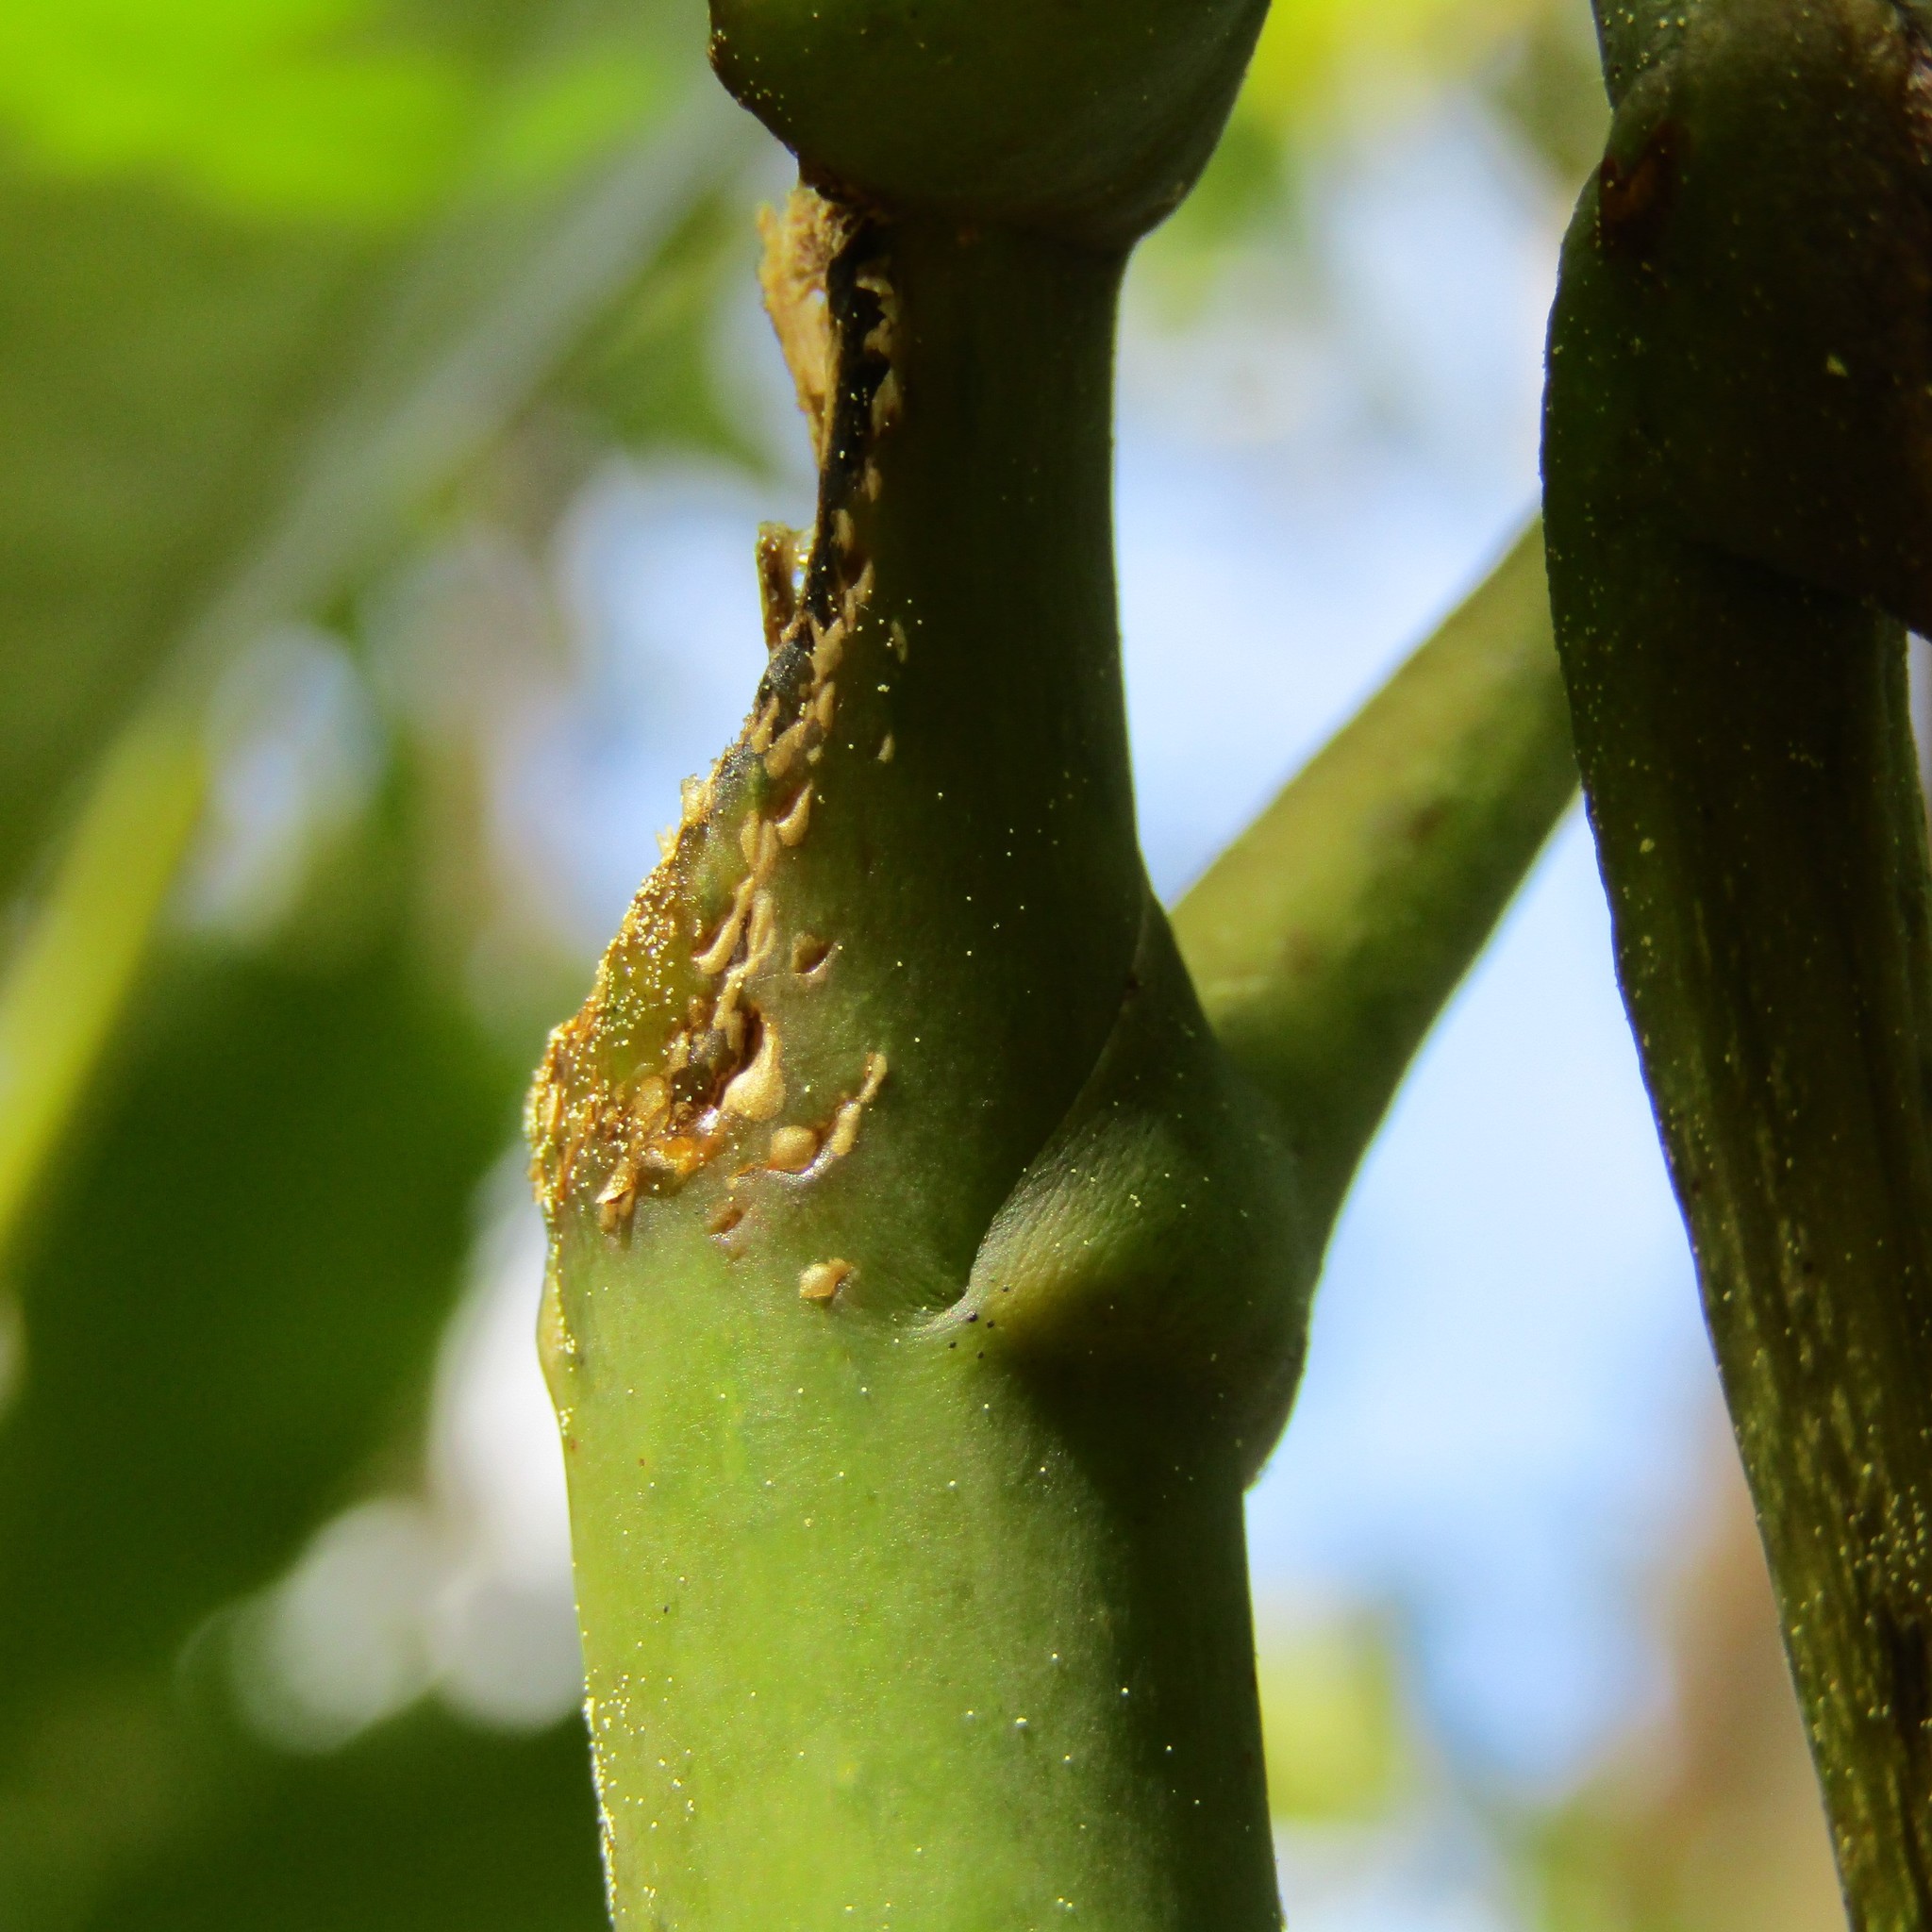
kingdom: Plantae
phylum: Tracheophyta
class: Magnoliopsida
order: Apiales
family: Araliaceae
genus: Neopanax
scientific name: Neopanax arboreus
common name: Five-fingers
